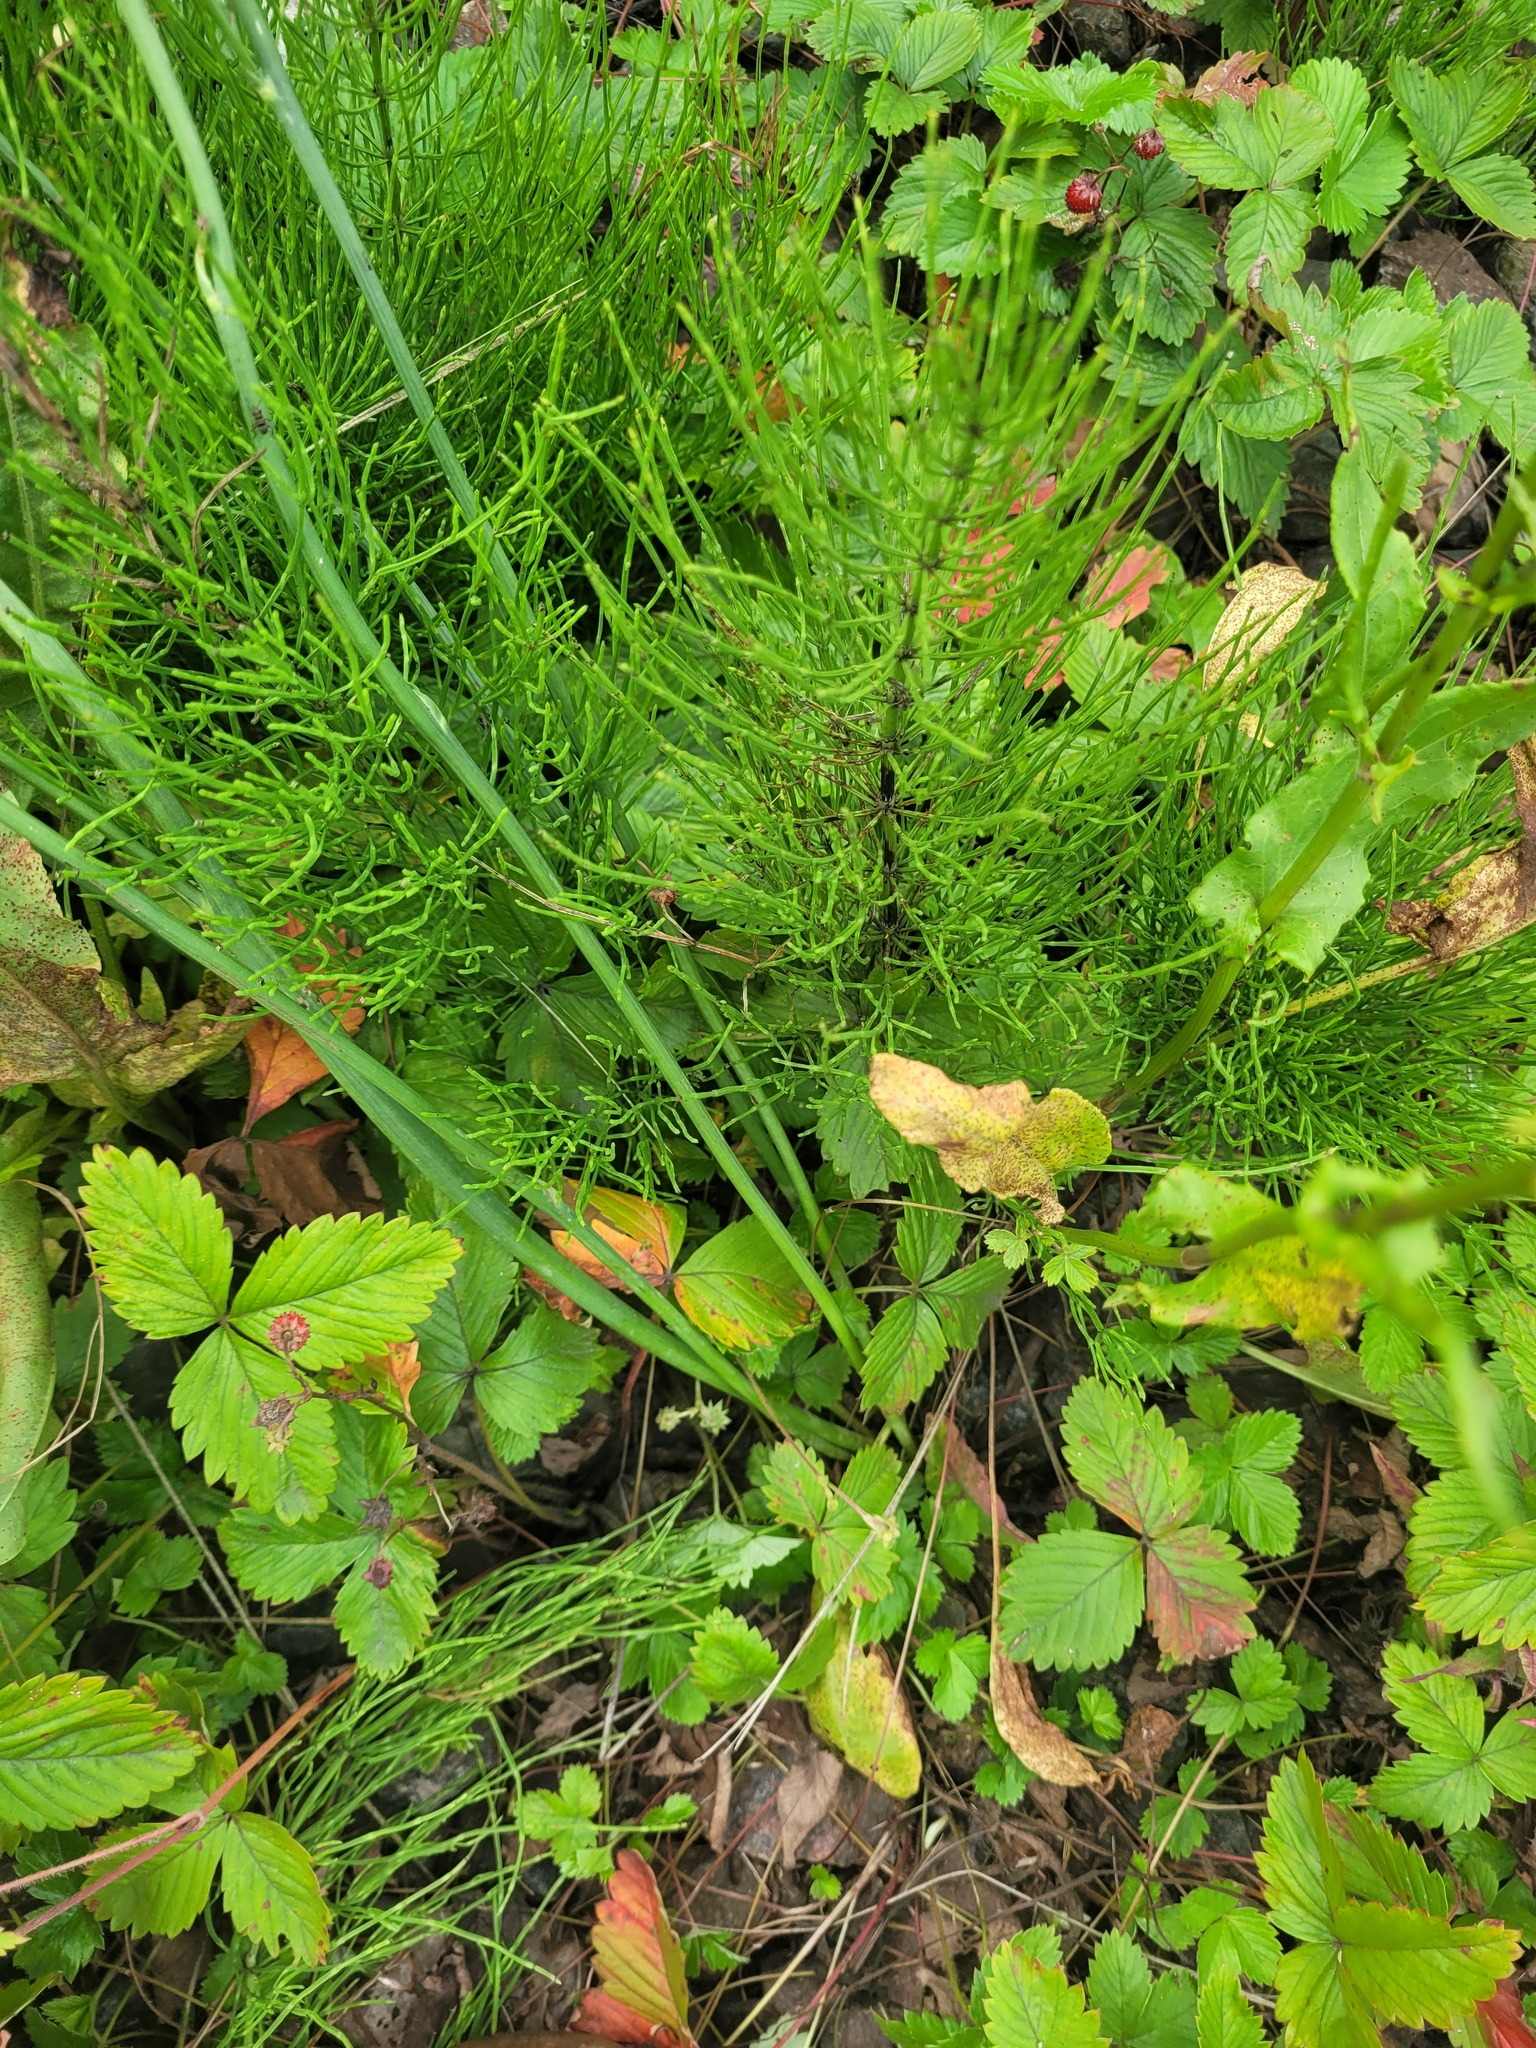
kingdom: Plantae
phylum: Tracheophyta
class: Magnoliopsida
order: Asterales
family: Asteraceae
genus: Hypochaeris
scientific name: Hypochaeris radicata
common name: Flatweed
